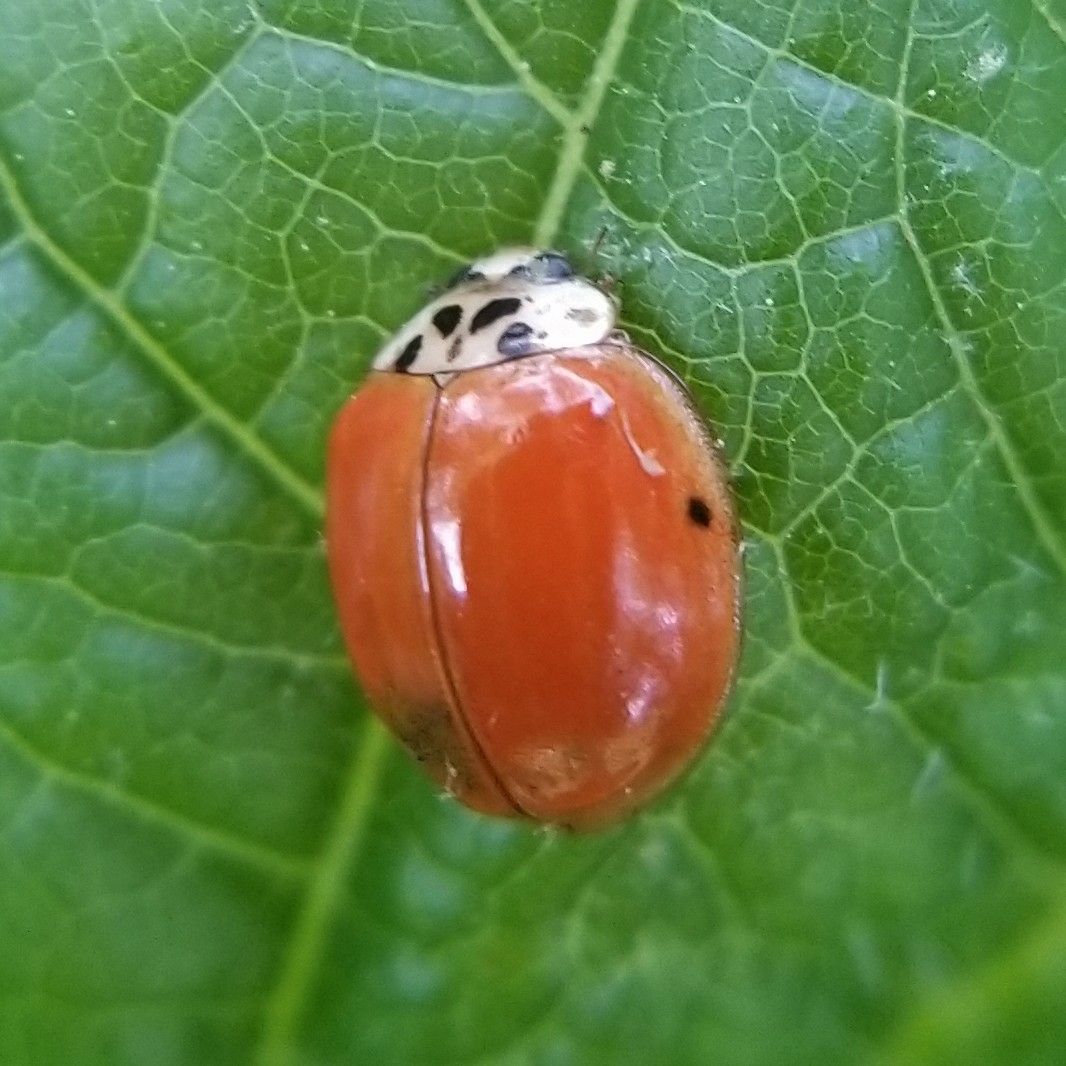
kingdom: Animalia
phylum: Arthropoda
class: Insecta
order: Coleoptera
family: Coccinellidae
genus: Harmonia
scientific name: Harmonia axyridis
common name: Harlequin ladybird
